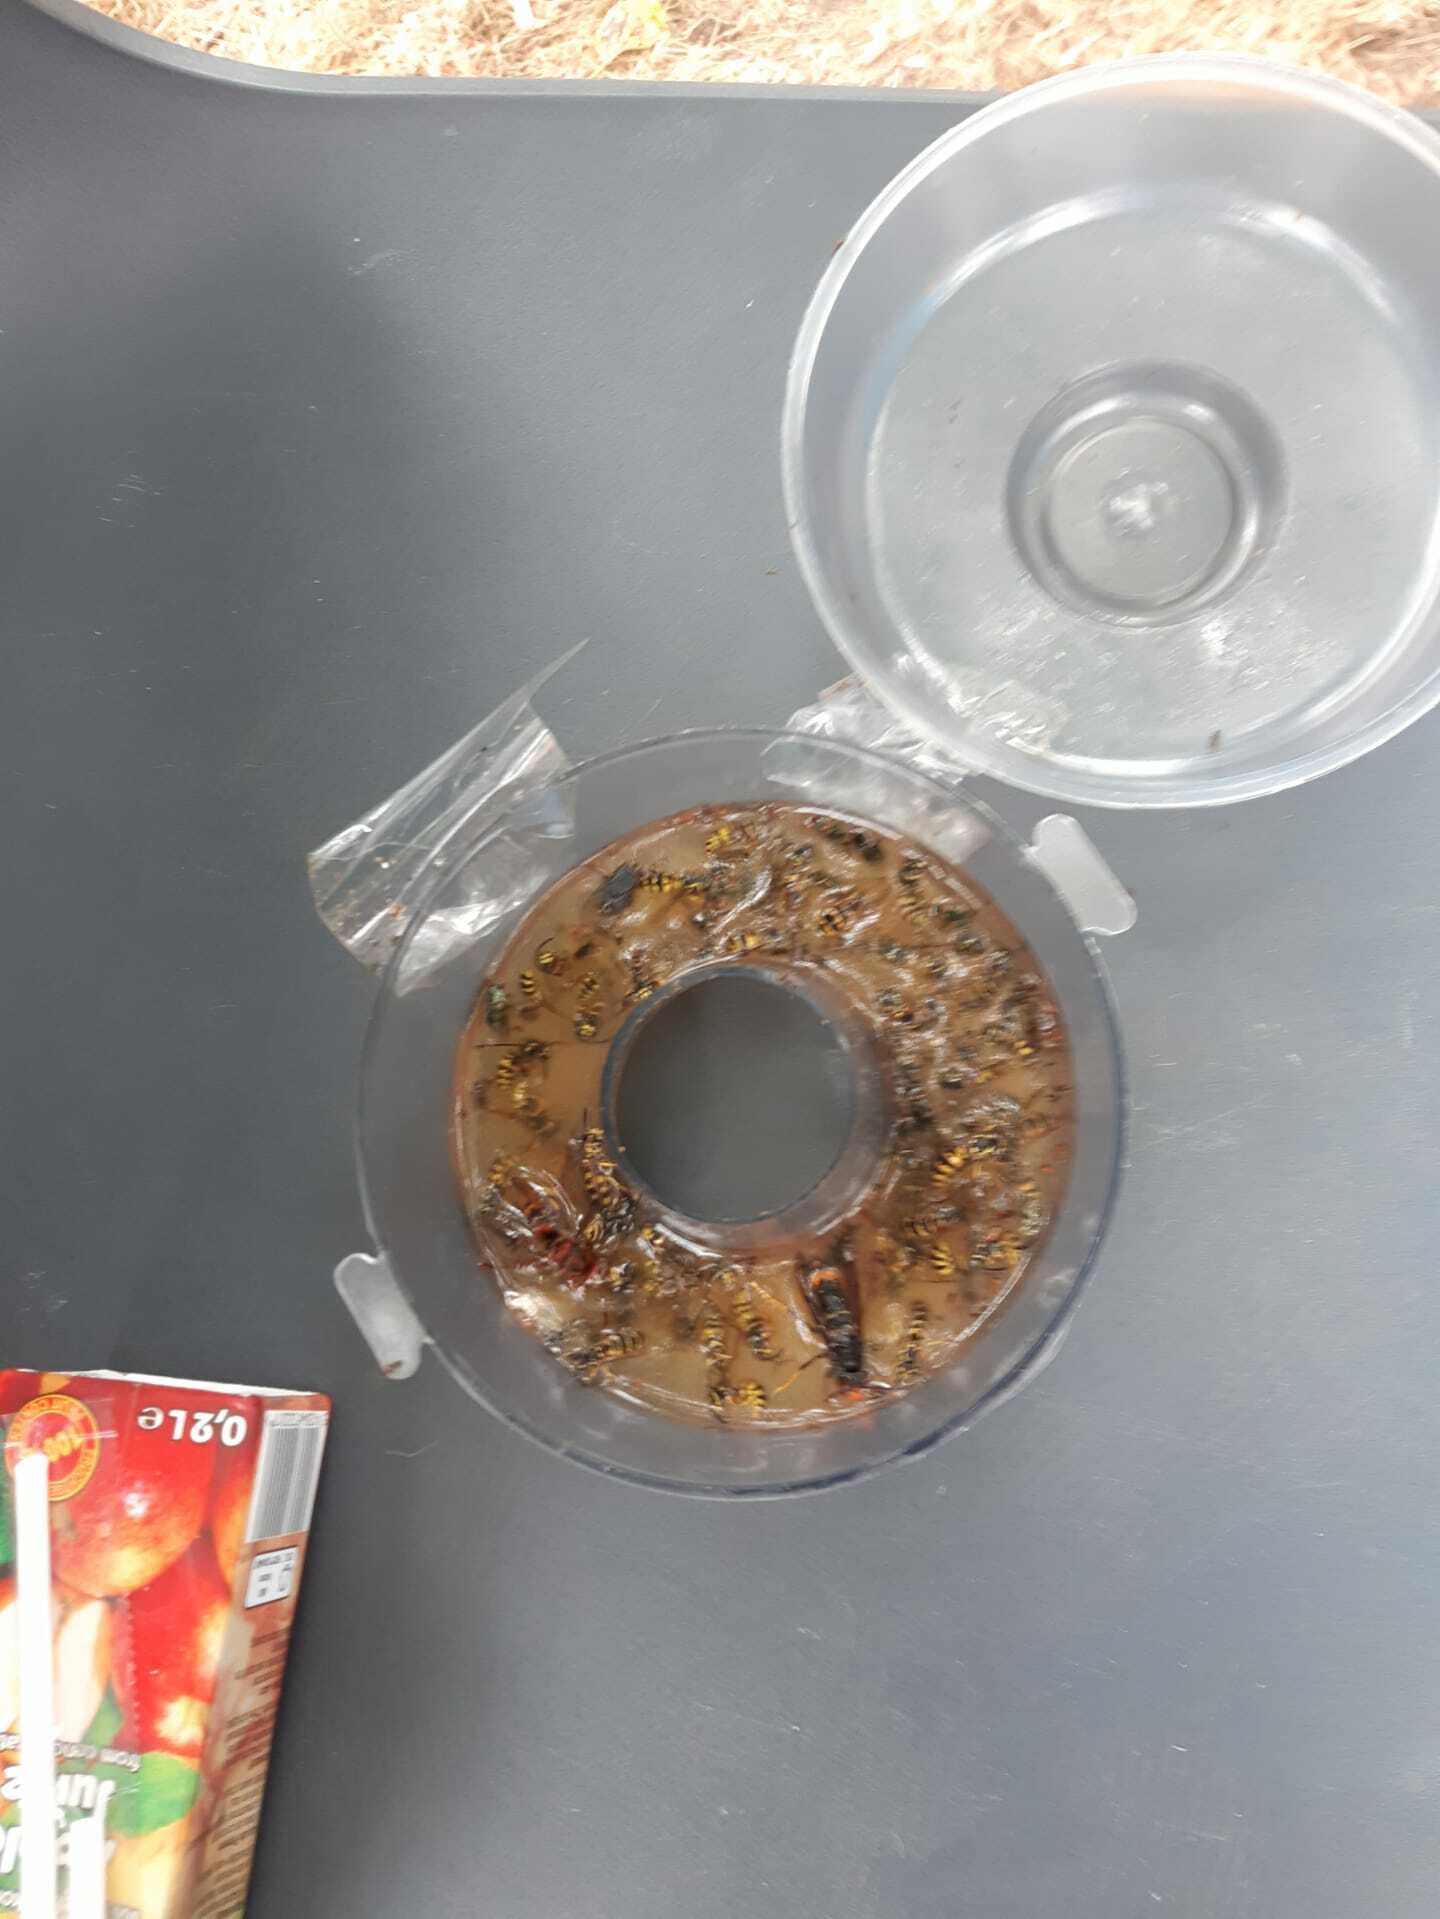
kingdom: Animalia
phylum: Arthropoda
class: Insecta
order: Hymenoptera
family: Vespidae
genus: Vespa
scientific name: Vespa velutina
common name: Asian hornet
